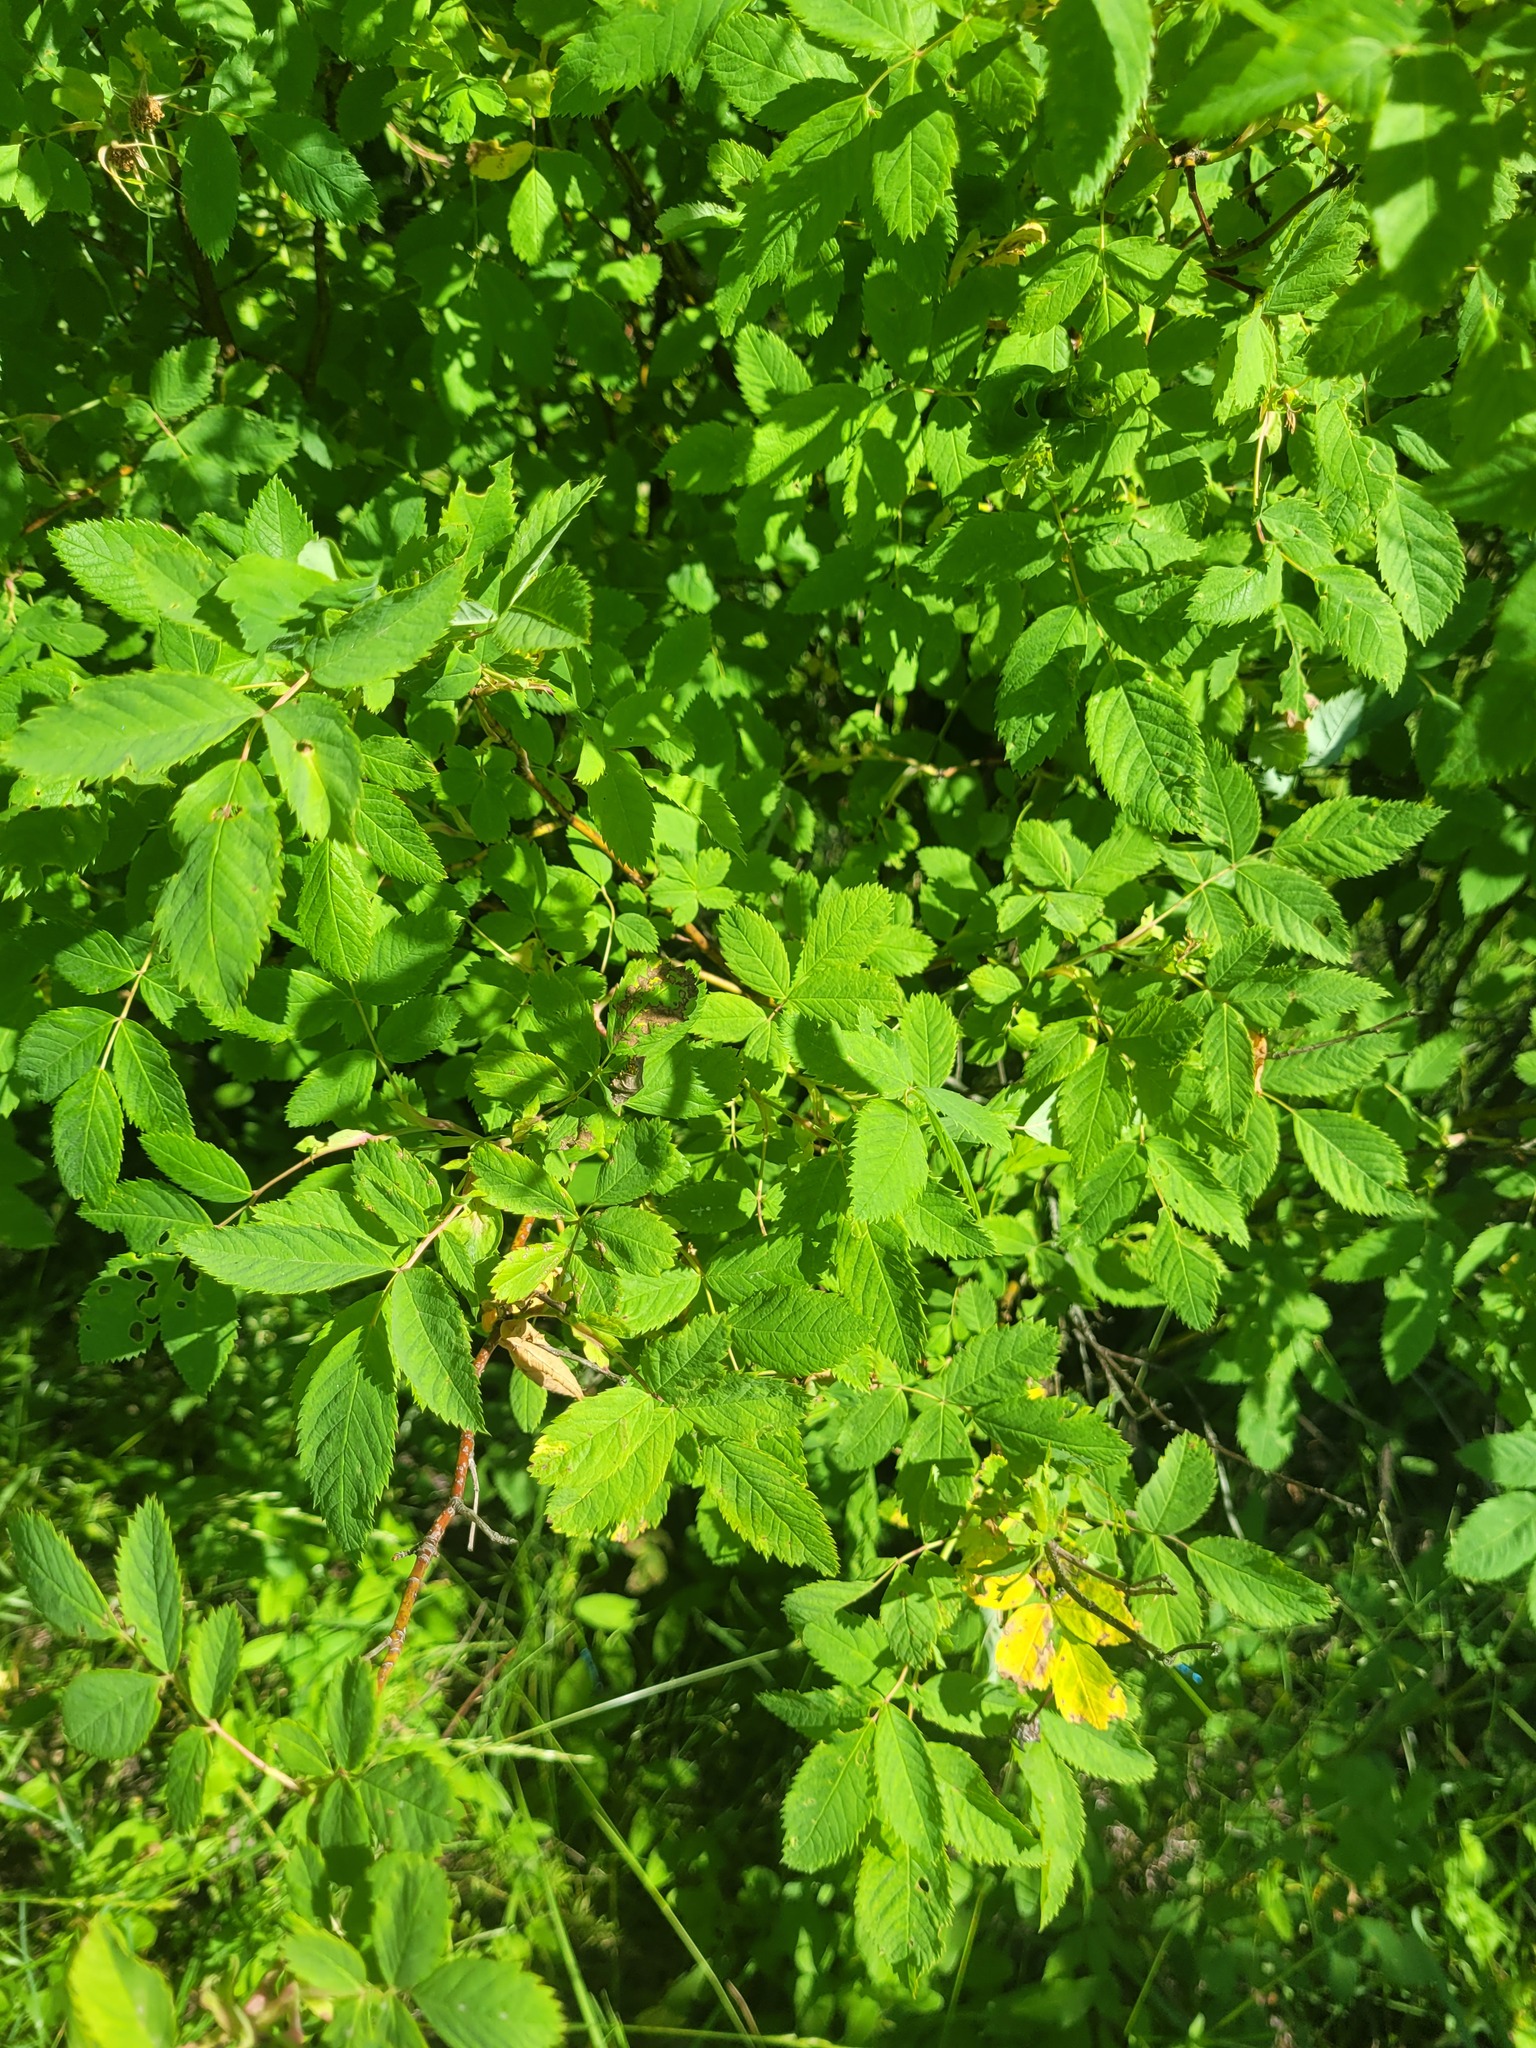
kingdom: Plantae
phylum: Tracheophyta
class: Magnoliopsida
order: Rosales
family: Rosaceae
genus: Rosa
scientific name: Rosa majalis
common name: Cinnamon rose
